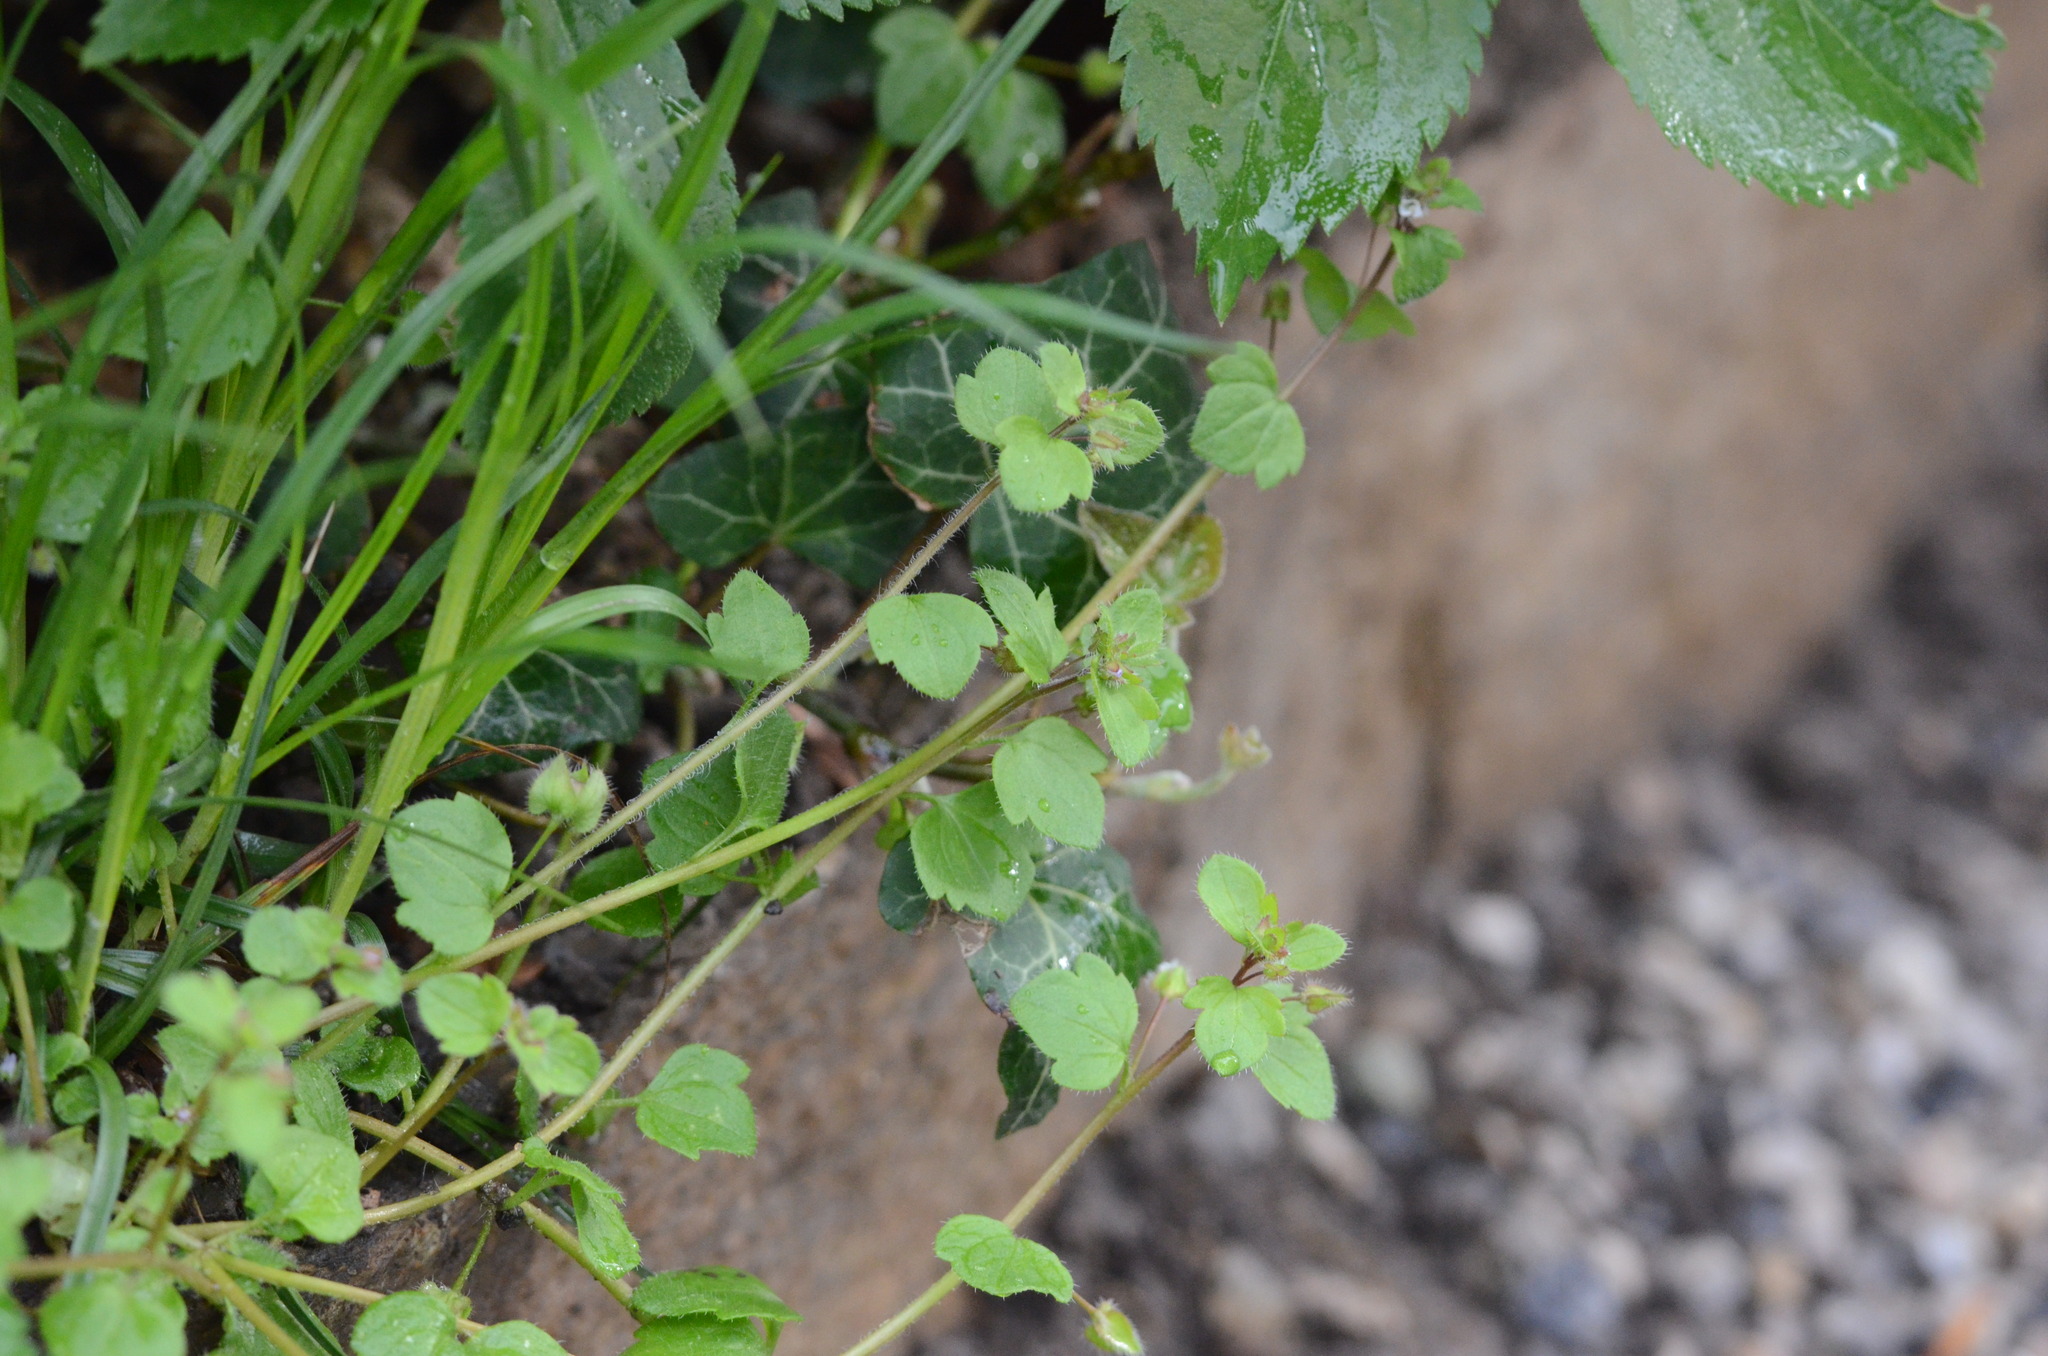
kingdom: Plantae
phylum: Tracheophyta
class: Magnoliopsida
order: Lamiales
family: Plantaginaceae
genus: Veronica
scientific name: Veronica sublobata
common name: False ivy-leaved speedwell
